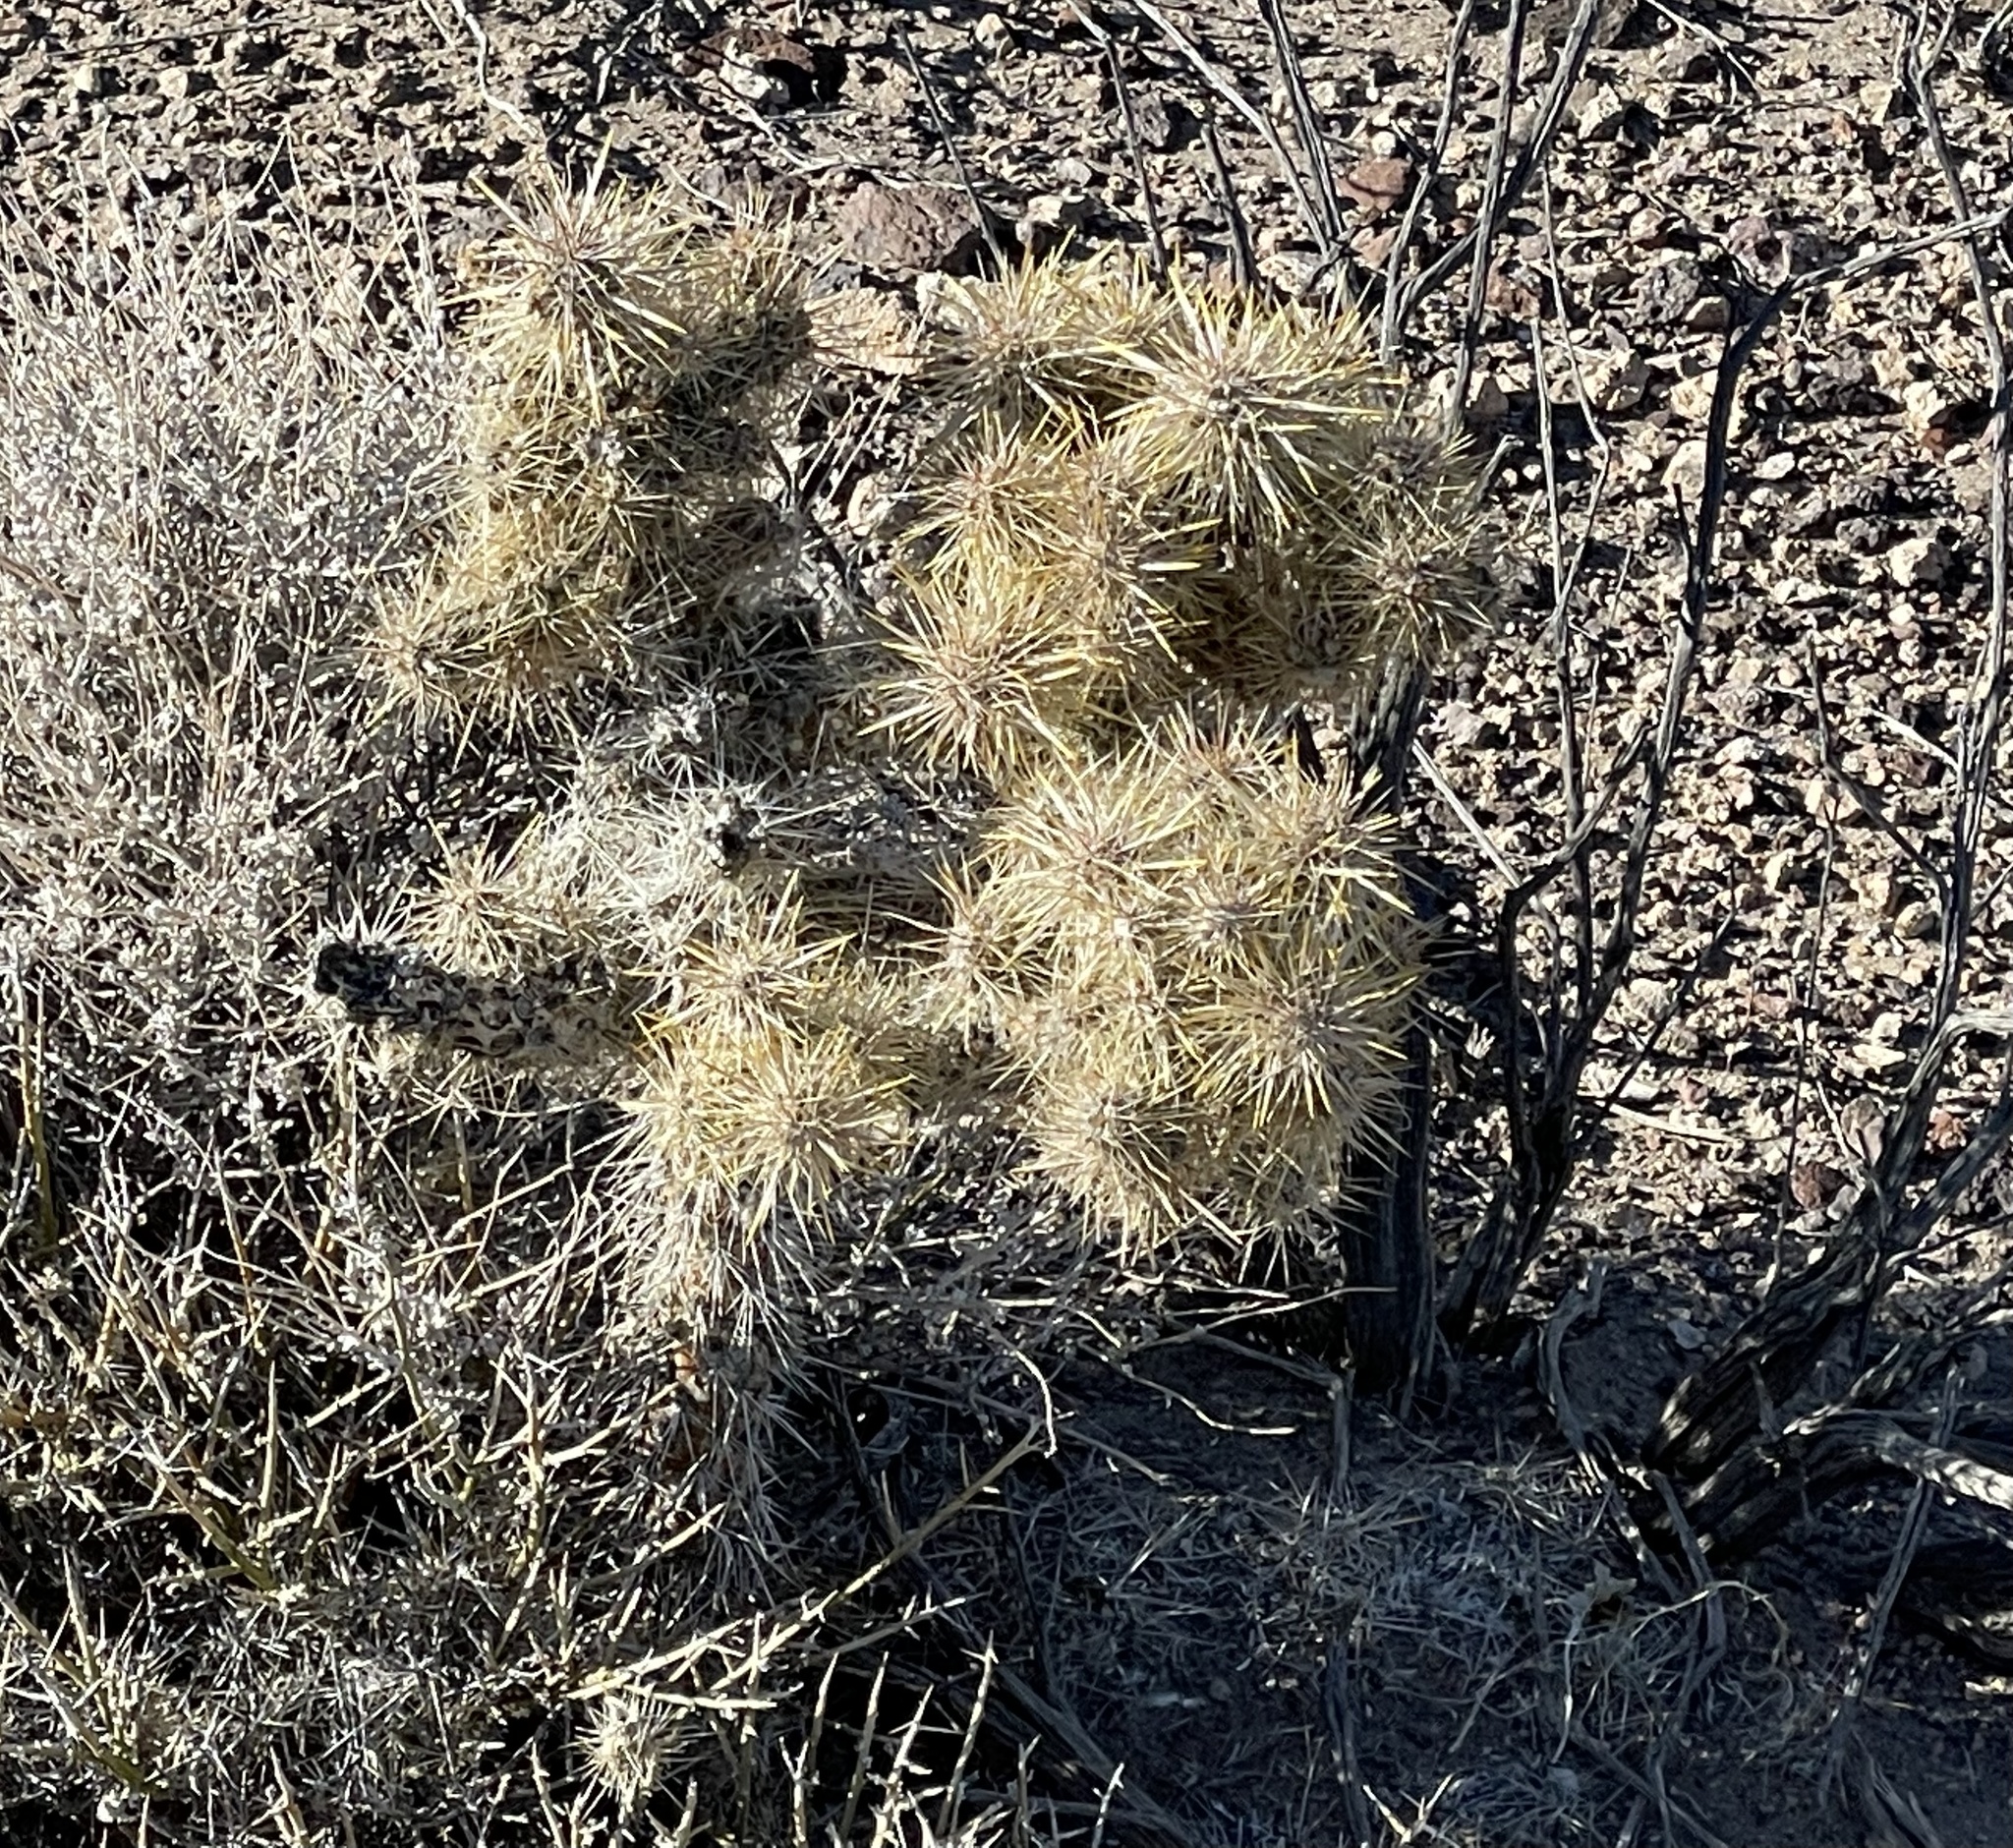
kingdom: Plantae
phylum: Tracheophyta
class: Magnoliopsida
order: Caryophyllales
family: Cactaceae
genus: Cylindropuntia
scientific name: Cylindropuntia echinocarpa
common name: Ground cholla
